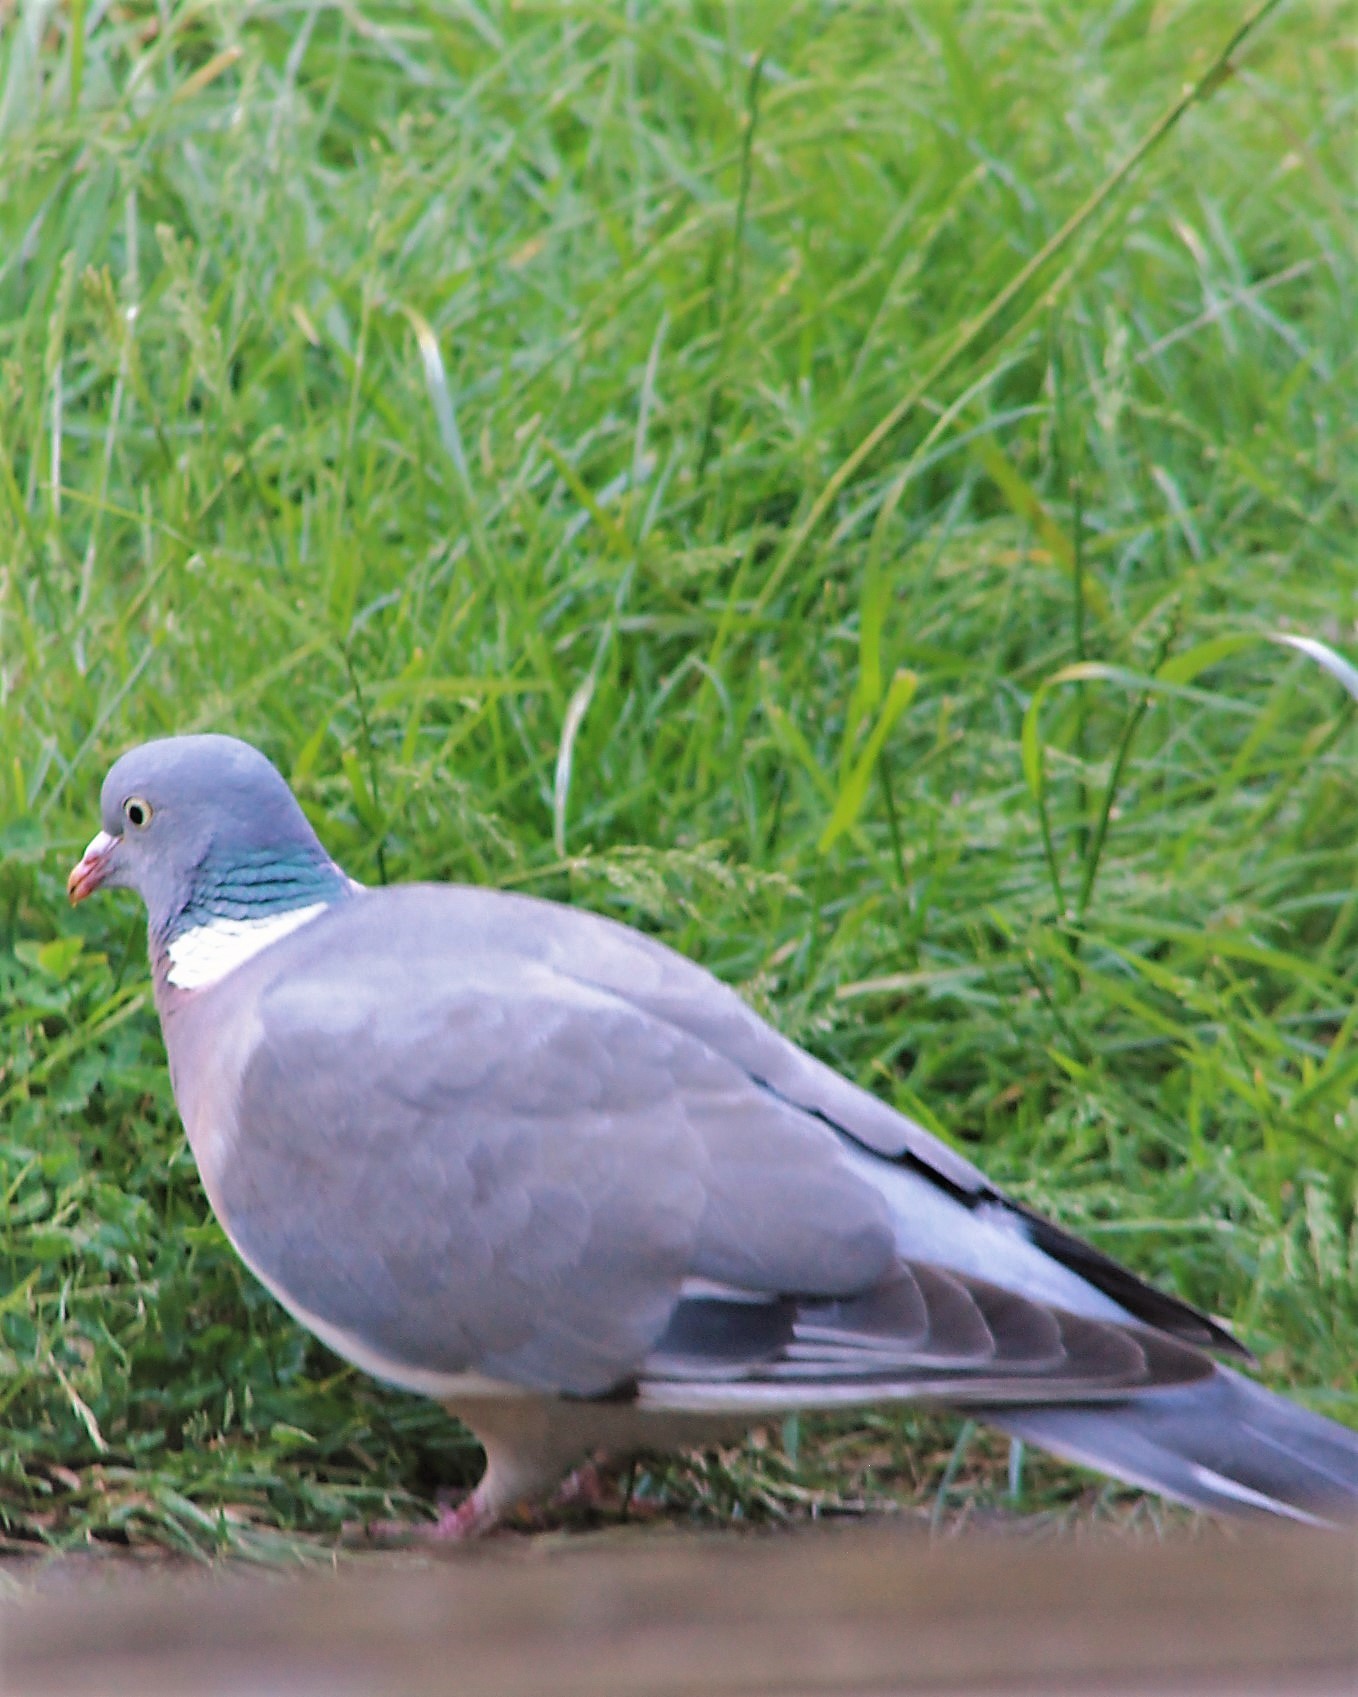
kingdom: Animalia
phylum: Chordata
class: Aves
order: Columbiformes
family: Columbidae
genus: Columba
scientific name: Columba palumbus
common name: Common wood pigeon
